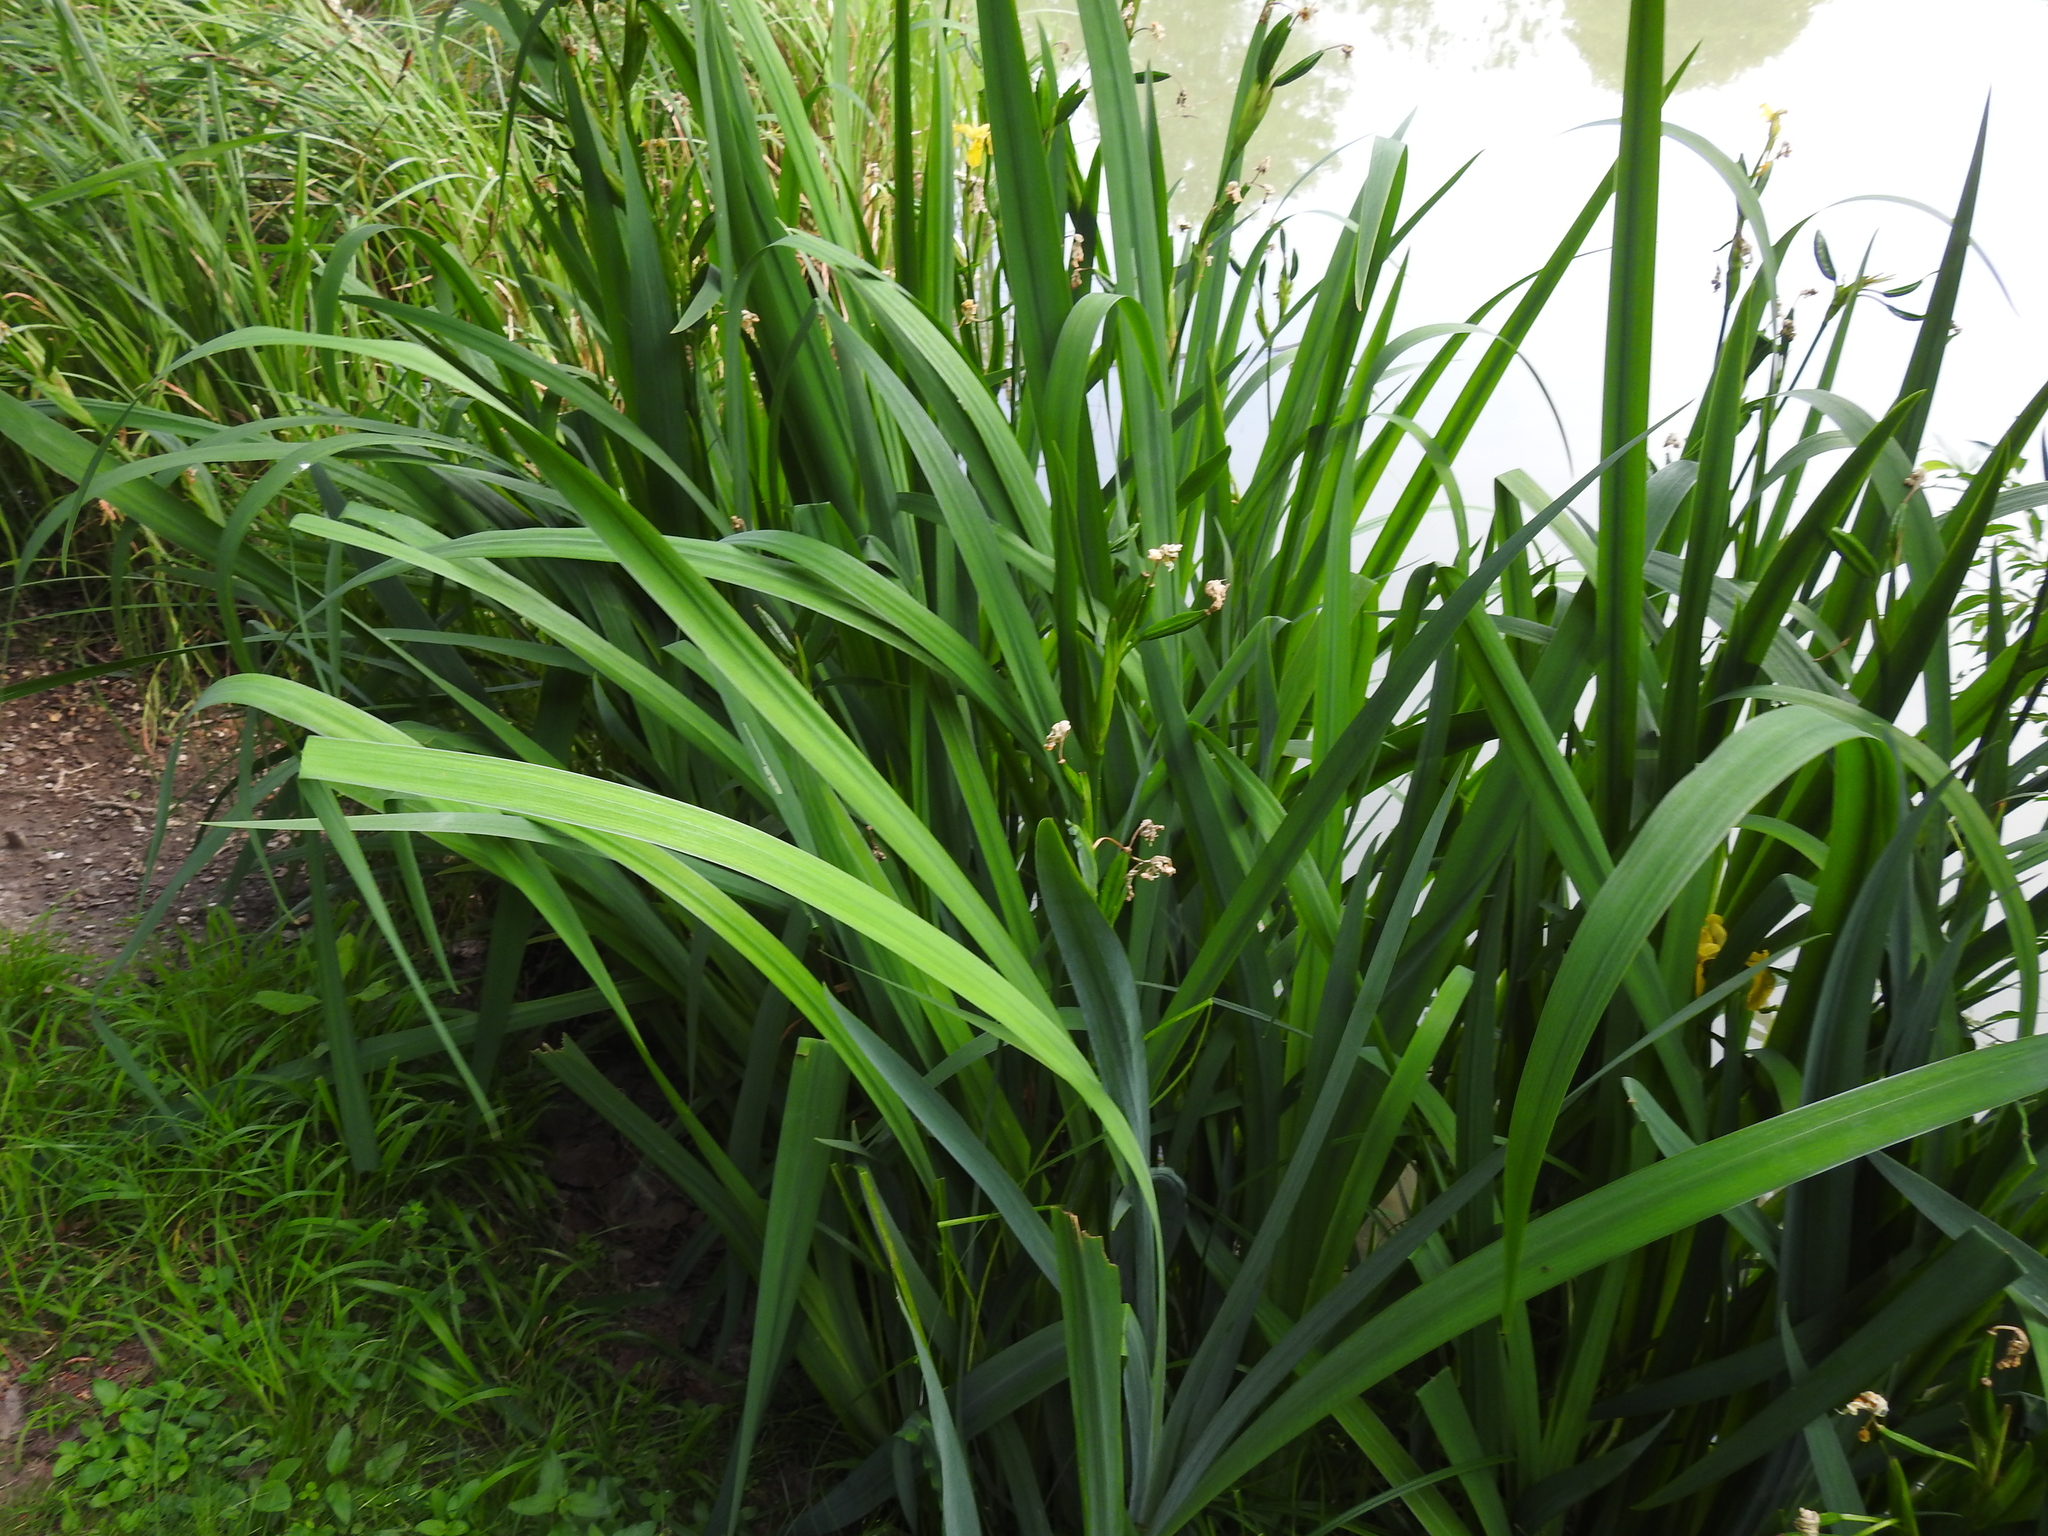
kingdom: Plantae
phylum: Tracheophyta
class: Liliopsida
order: Asparagales
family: Iridaceae
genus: Iris
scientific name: Iris pseudacorus
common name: Yellow flag
